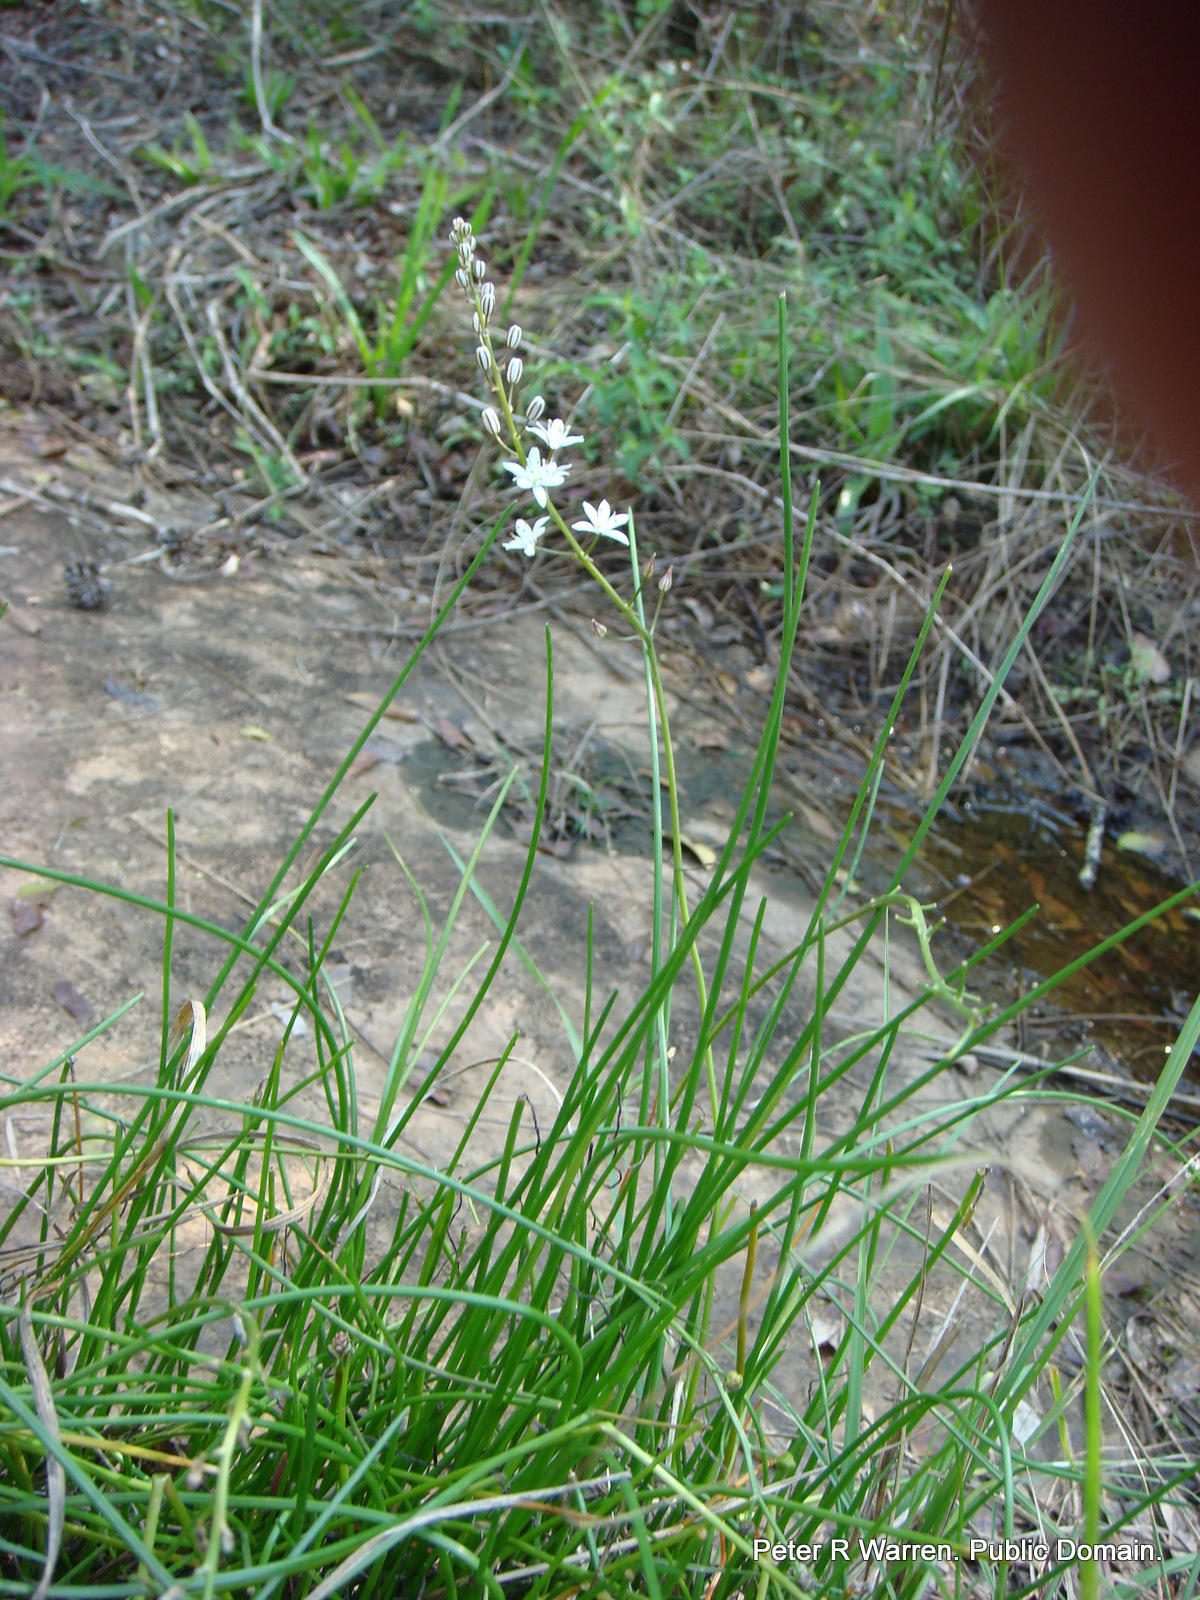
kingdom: Plantae
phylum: Tracheophyta
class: Liliopsida
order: Asparagales
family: Asparagaceae
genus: Drimia
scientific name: Drimia calcarata
